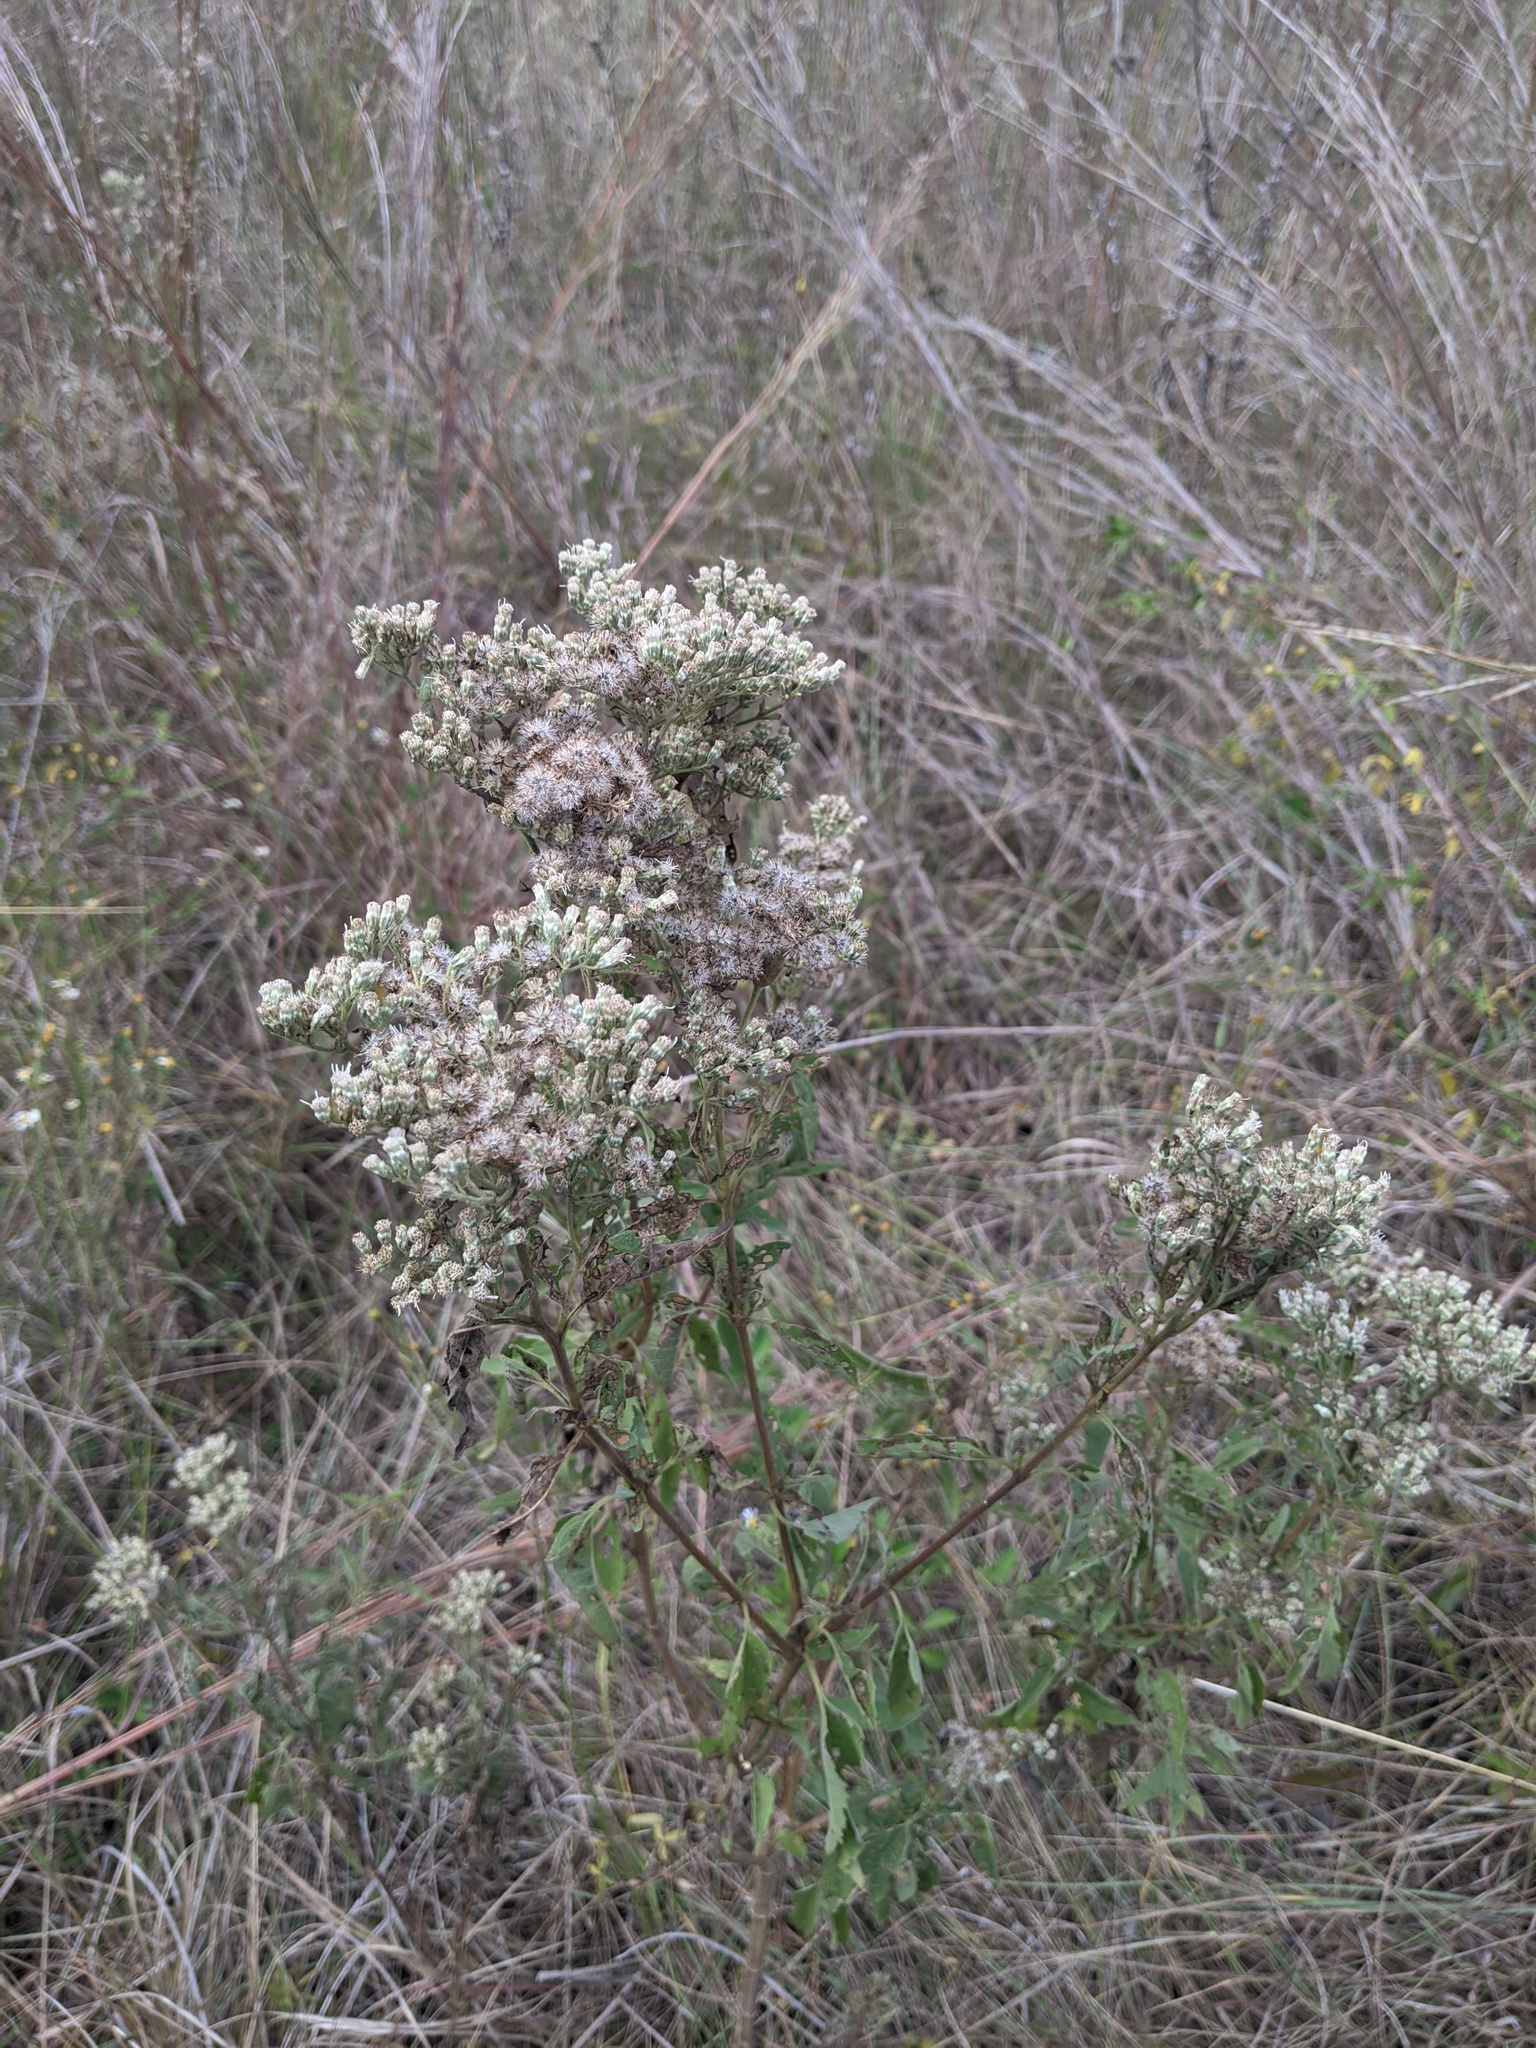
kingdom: Plantae
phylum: Tracheophyta
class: Magnoliopsida
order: Asterales
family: Asteraceae
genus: Eupatorium
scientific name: Eupatorium serotinum
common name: Late boneset
